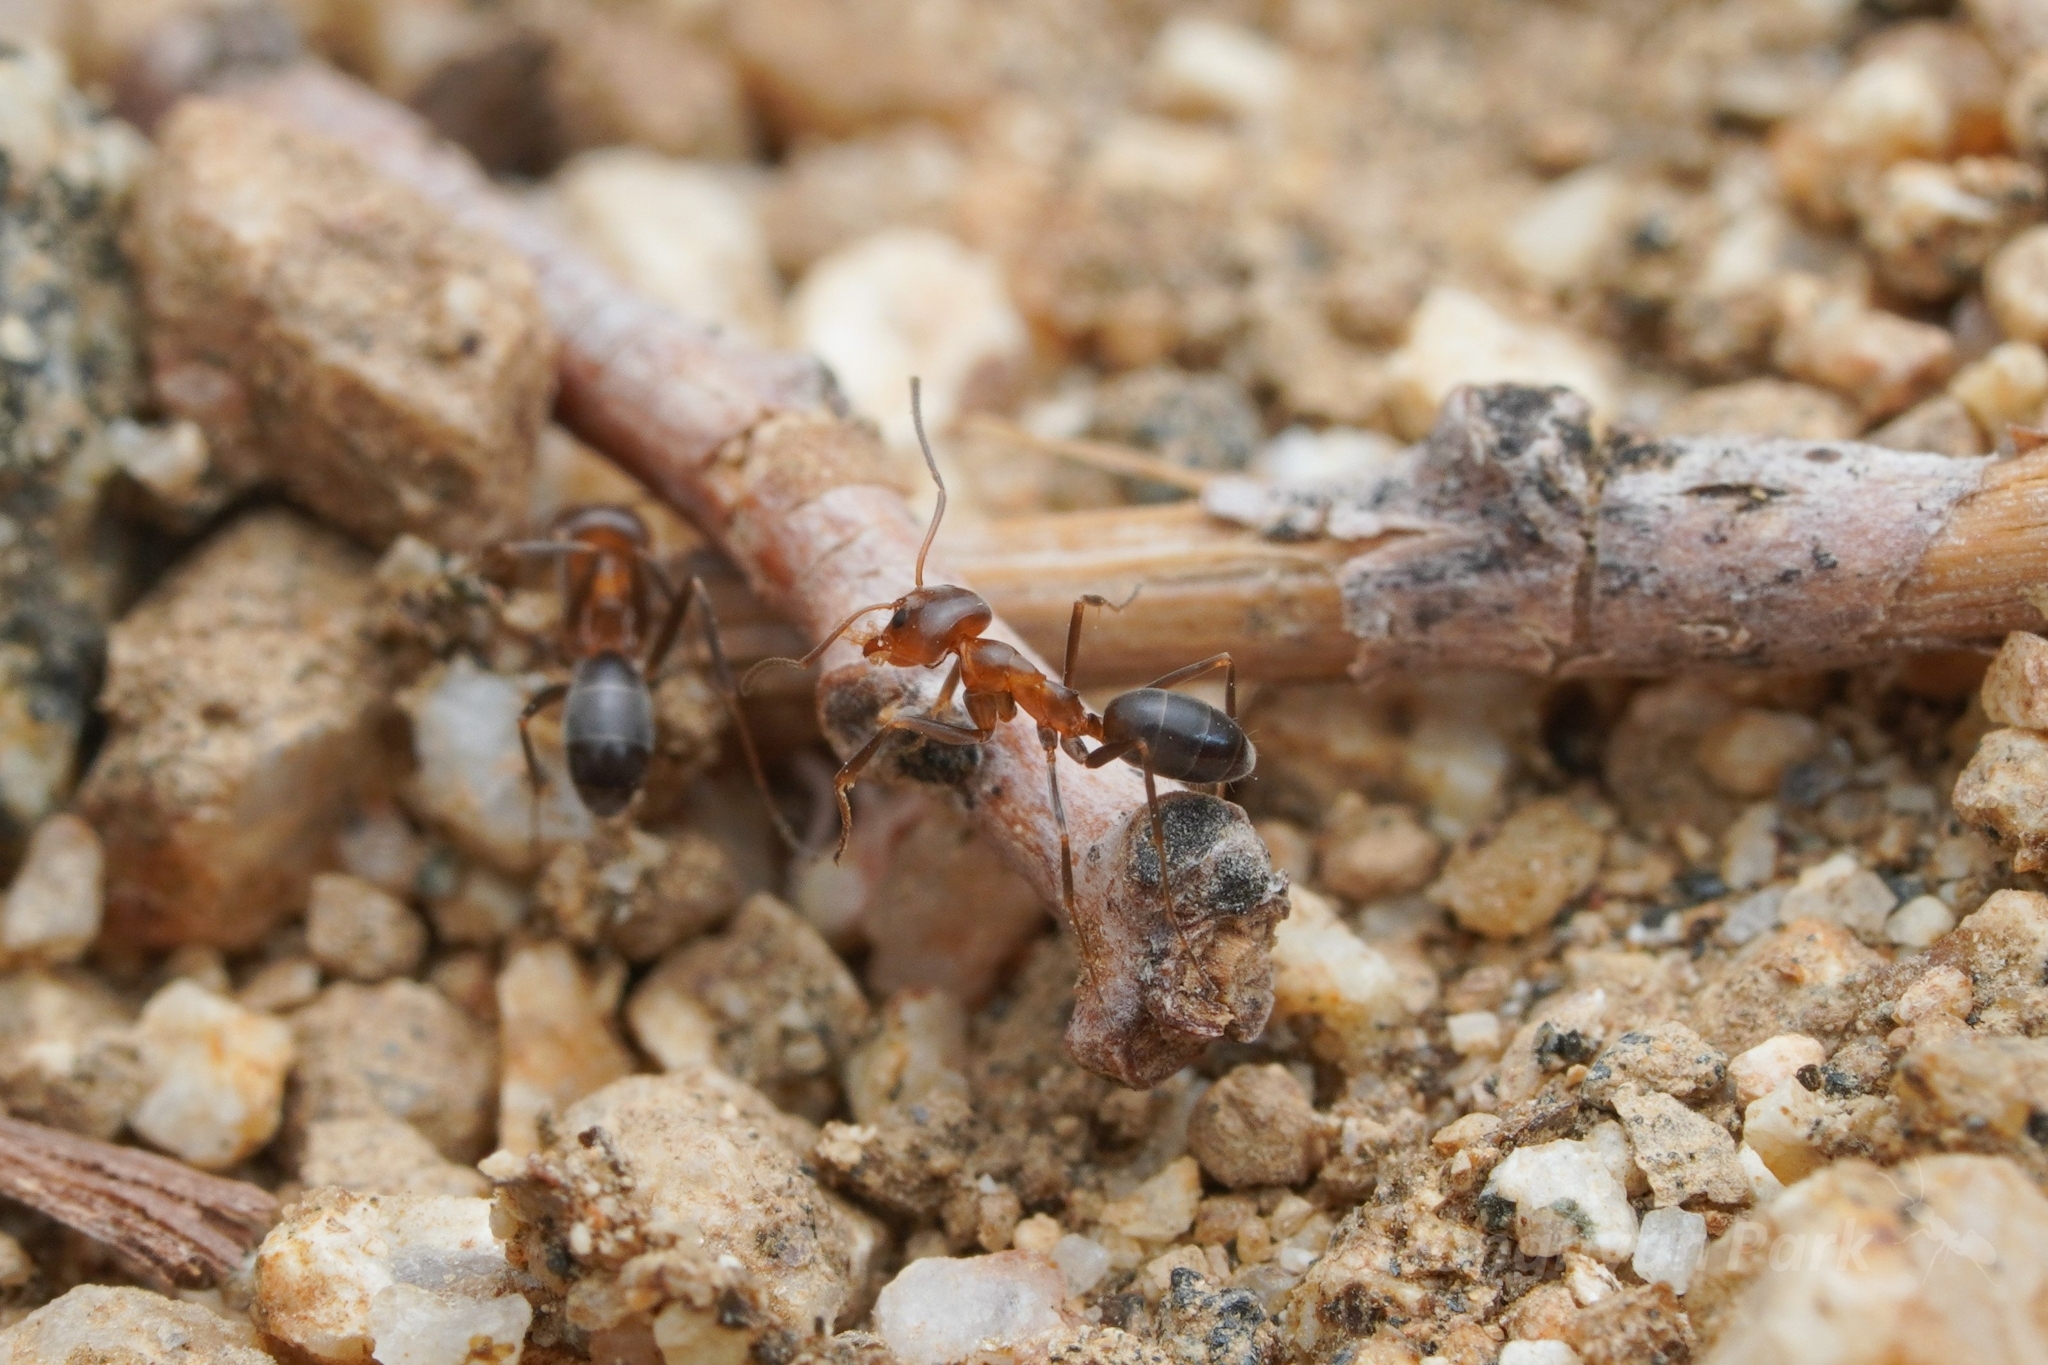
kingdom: Animalia
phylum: Arthropoda
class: Insecta
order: Hymenoptera
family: Formicidae
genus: Dorymyrmex
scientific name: Dorymyrmex bicolor
